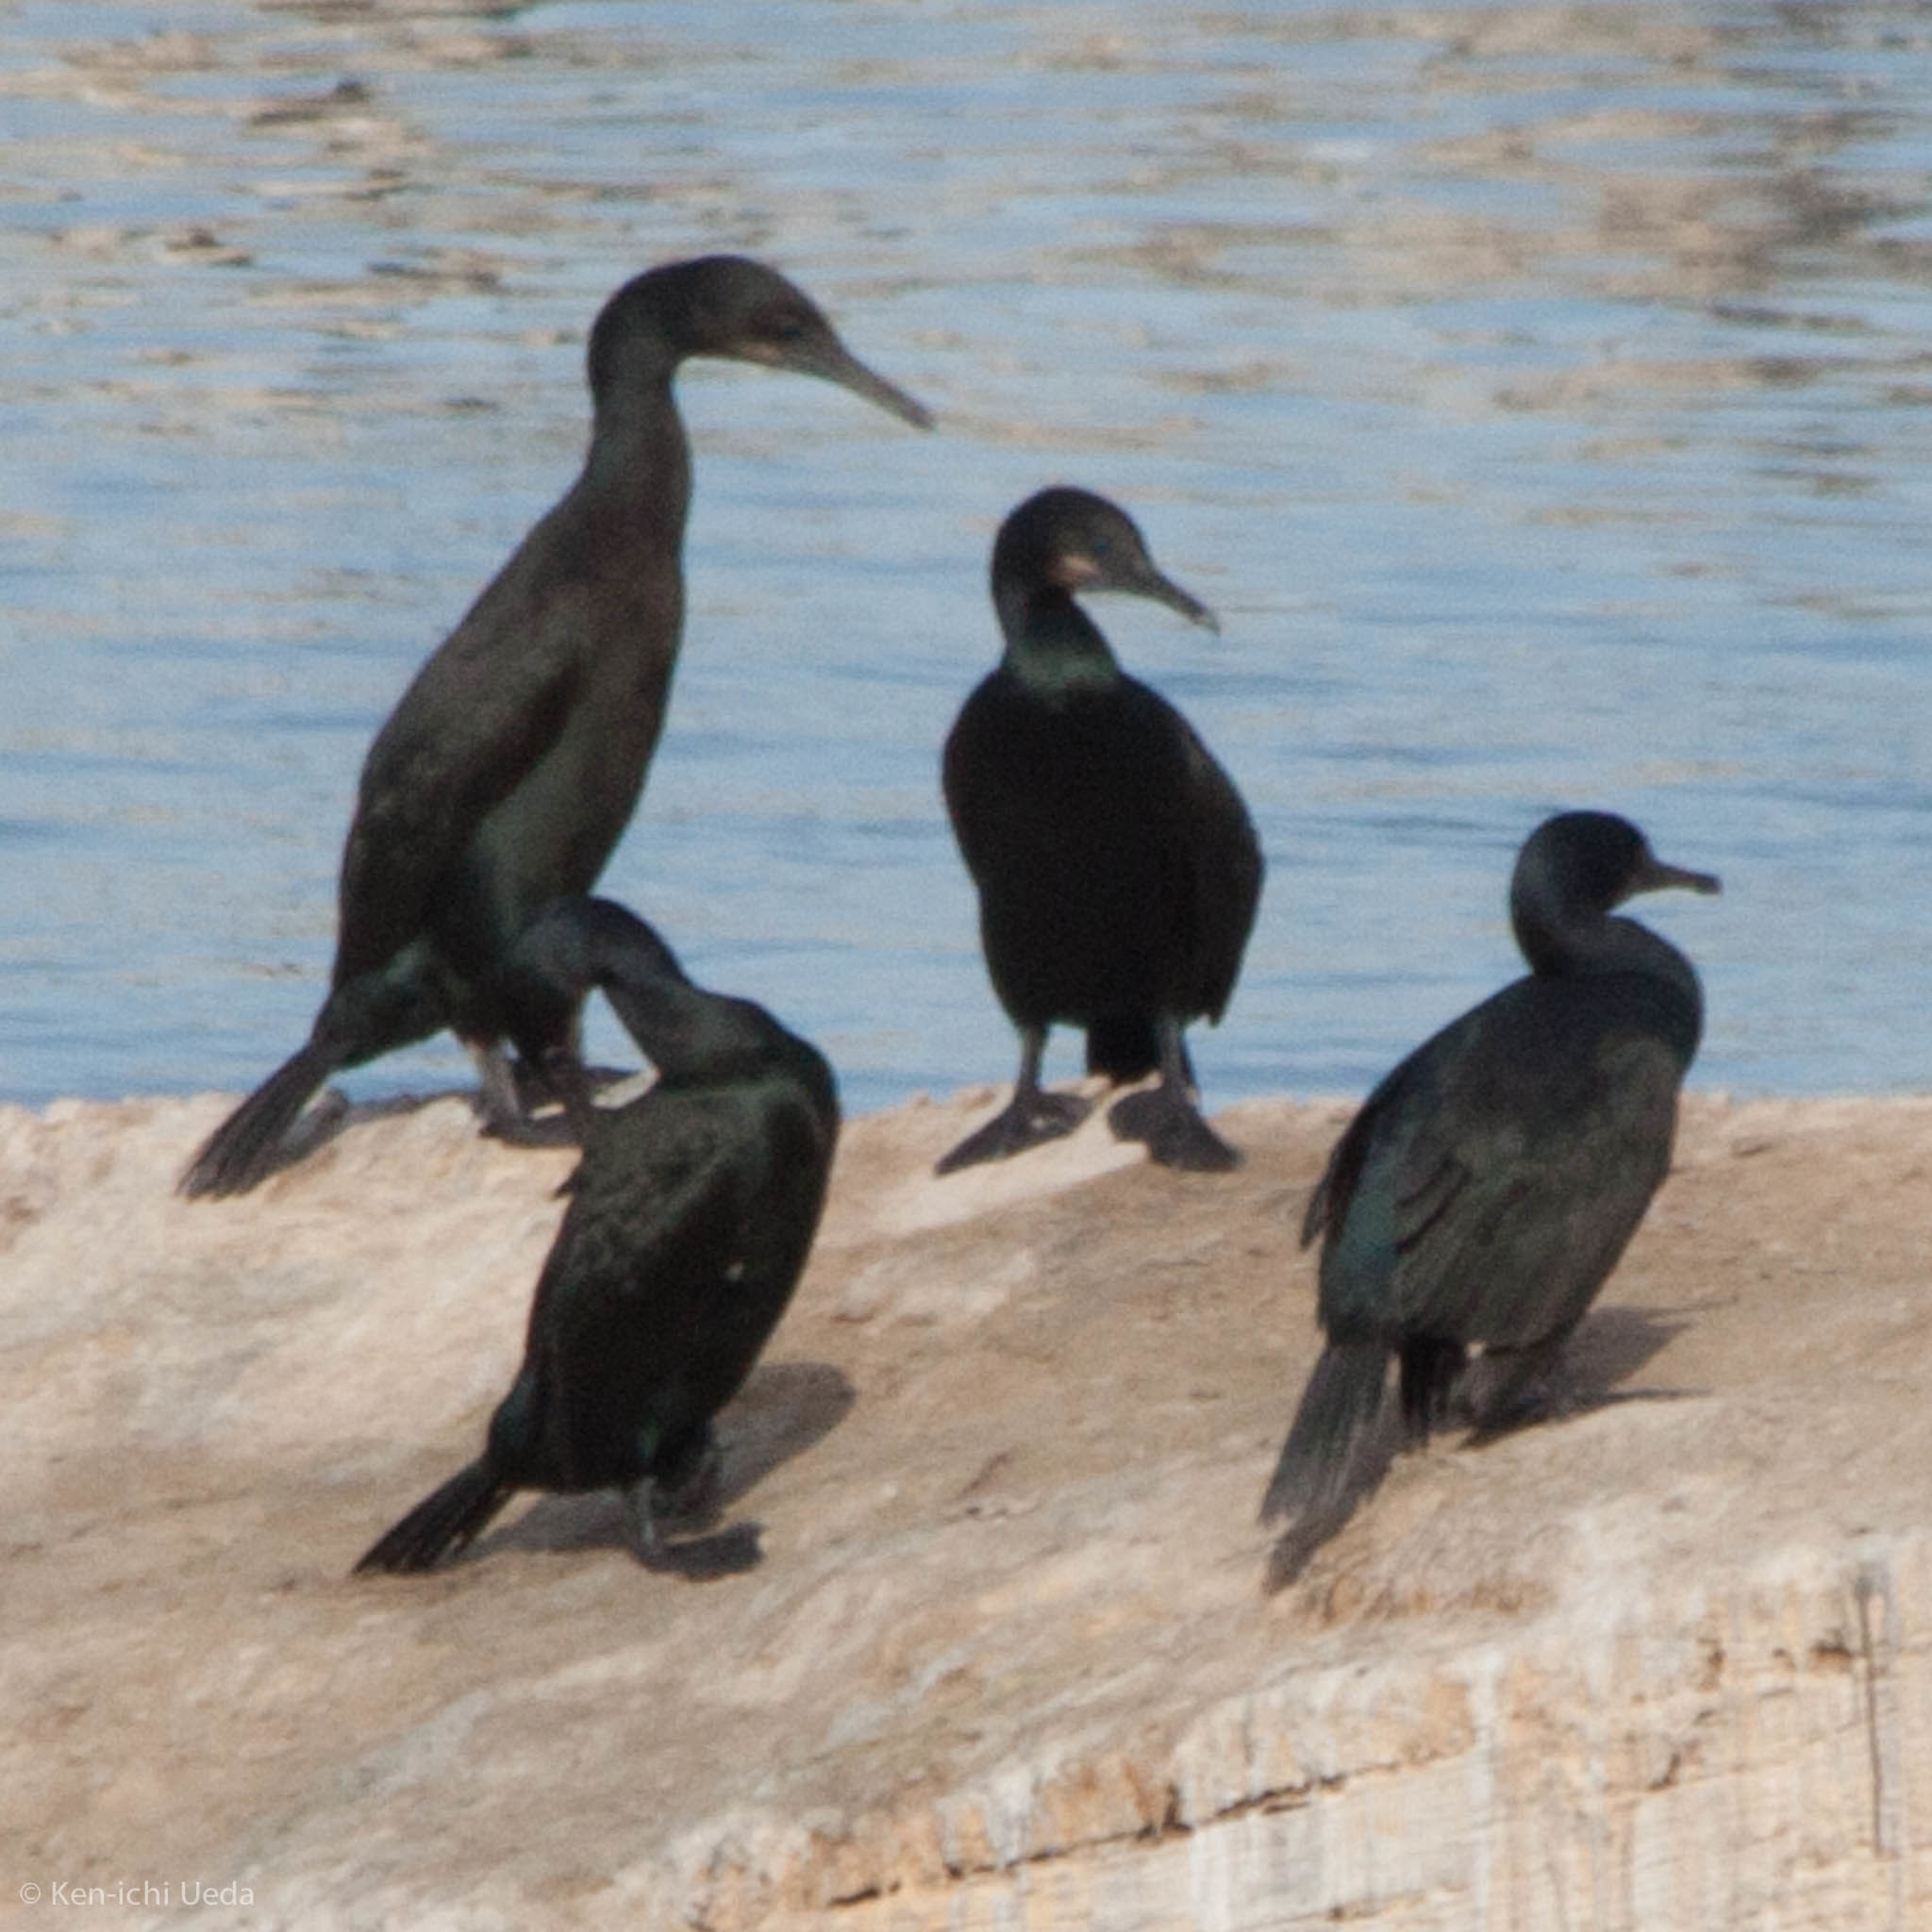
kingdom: Animalia
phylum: Chordata
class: Aves
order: Suliformes
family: Phalacrocoracidae
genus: Urile
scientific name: Urile penicillatus
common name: Brandt's cormorant
